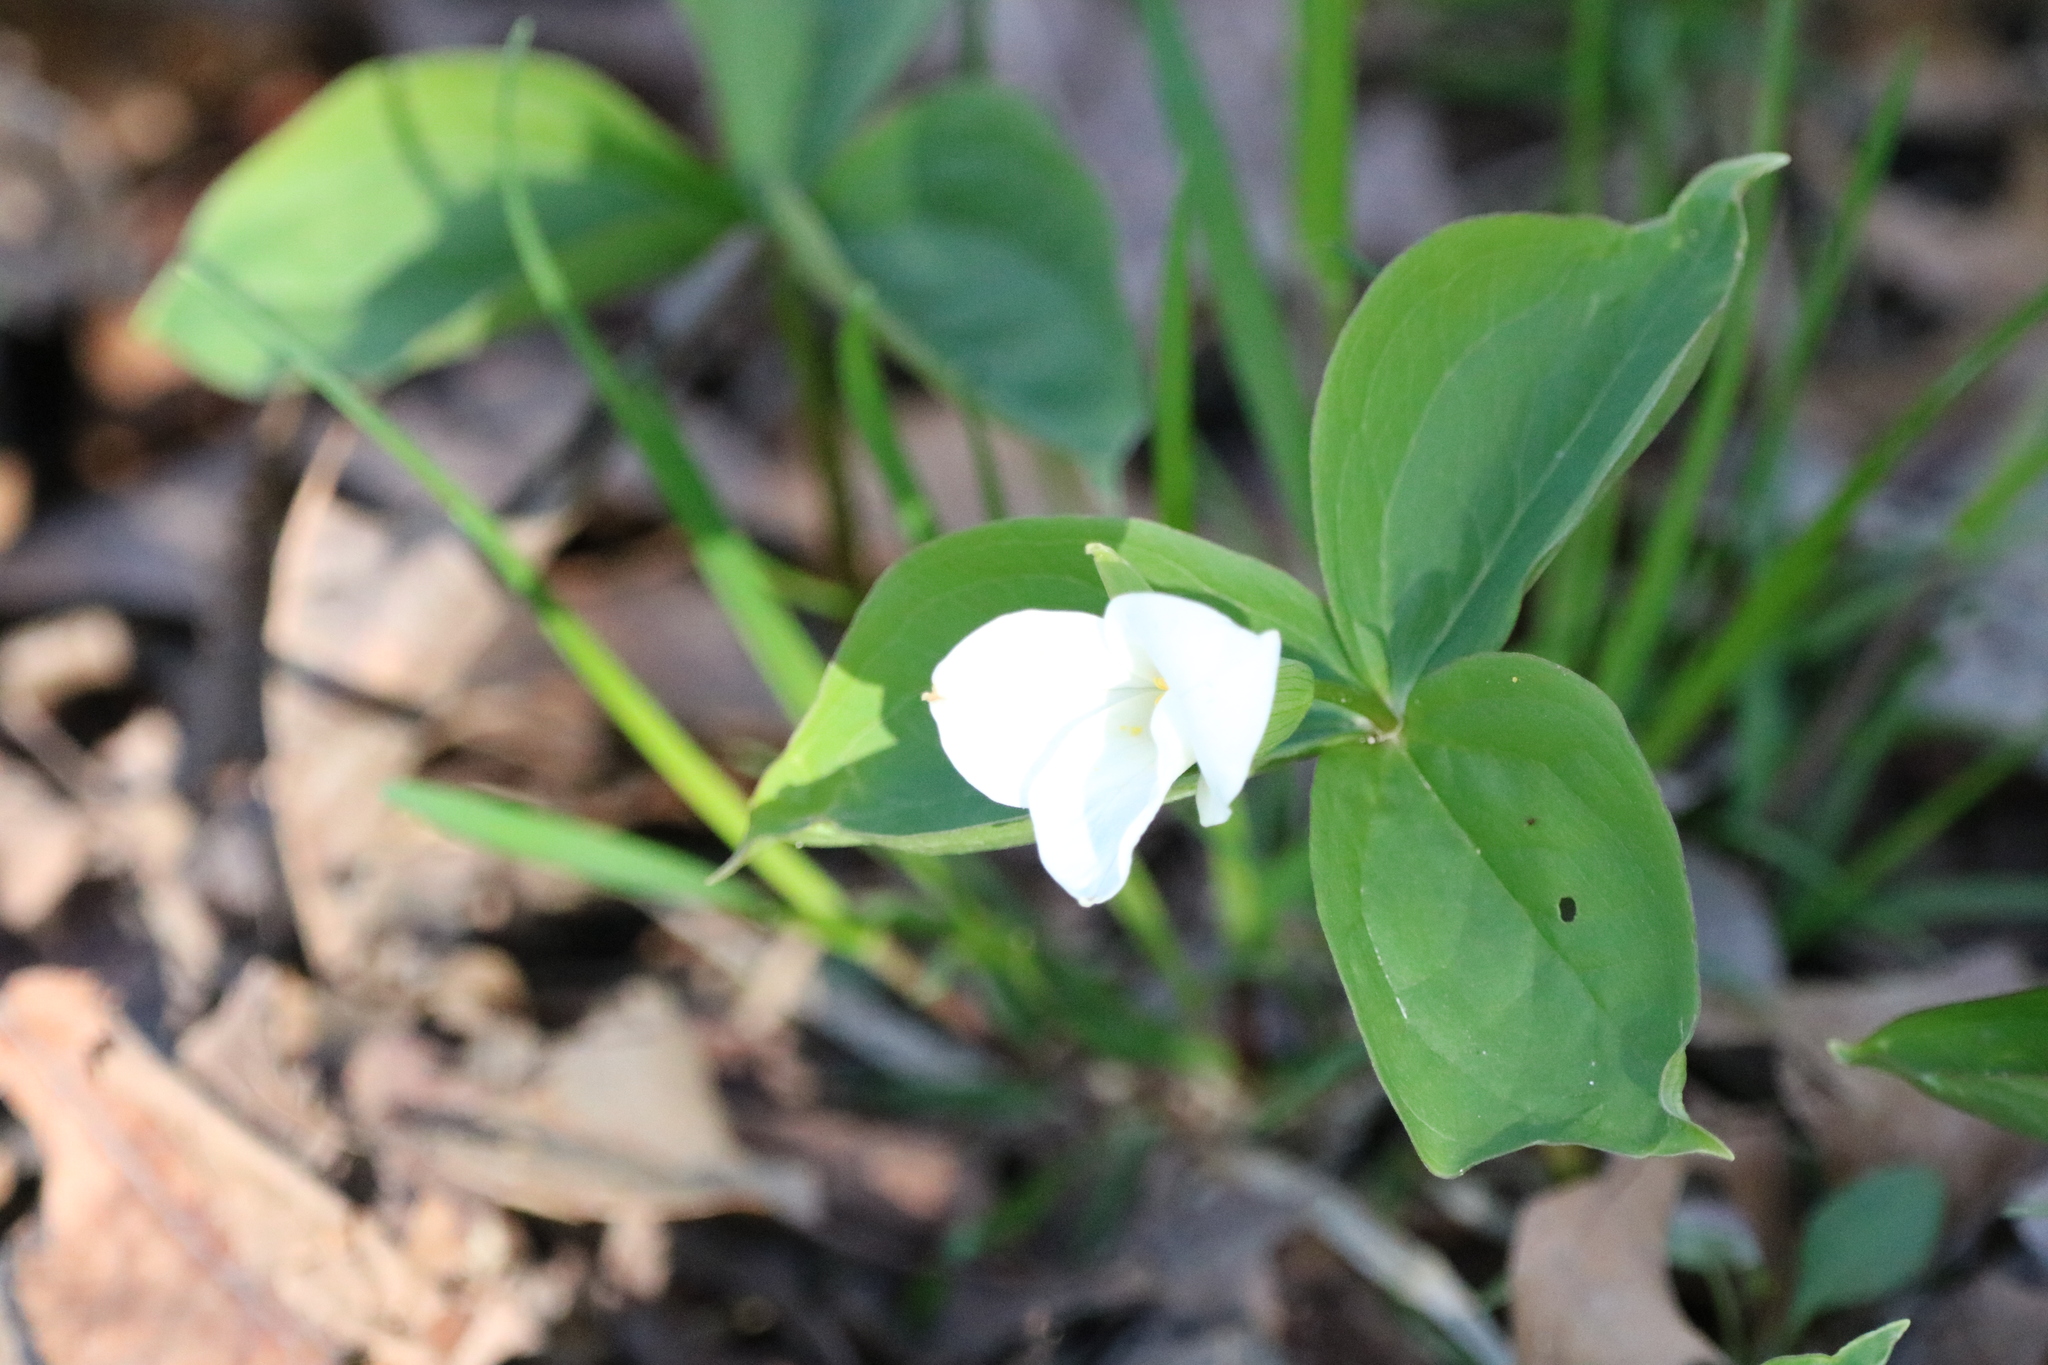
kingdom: Plantae
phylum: Tracheophyta
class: Liliopsida
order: Liliales
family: Melanthiaceae
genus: Trillium
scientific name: Trillium grandiflorum
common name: Great white trillium
